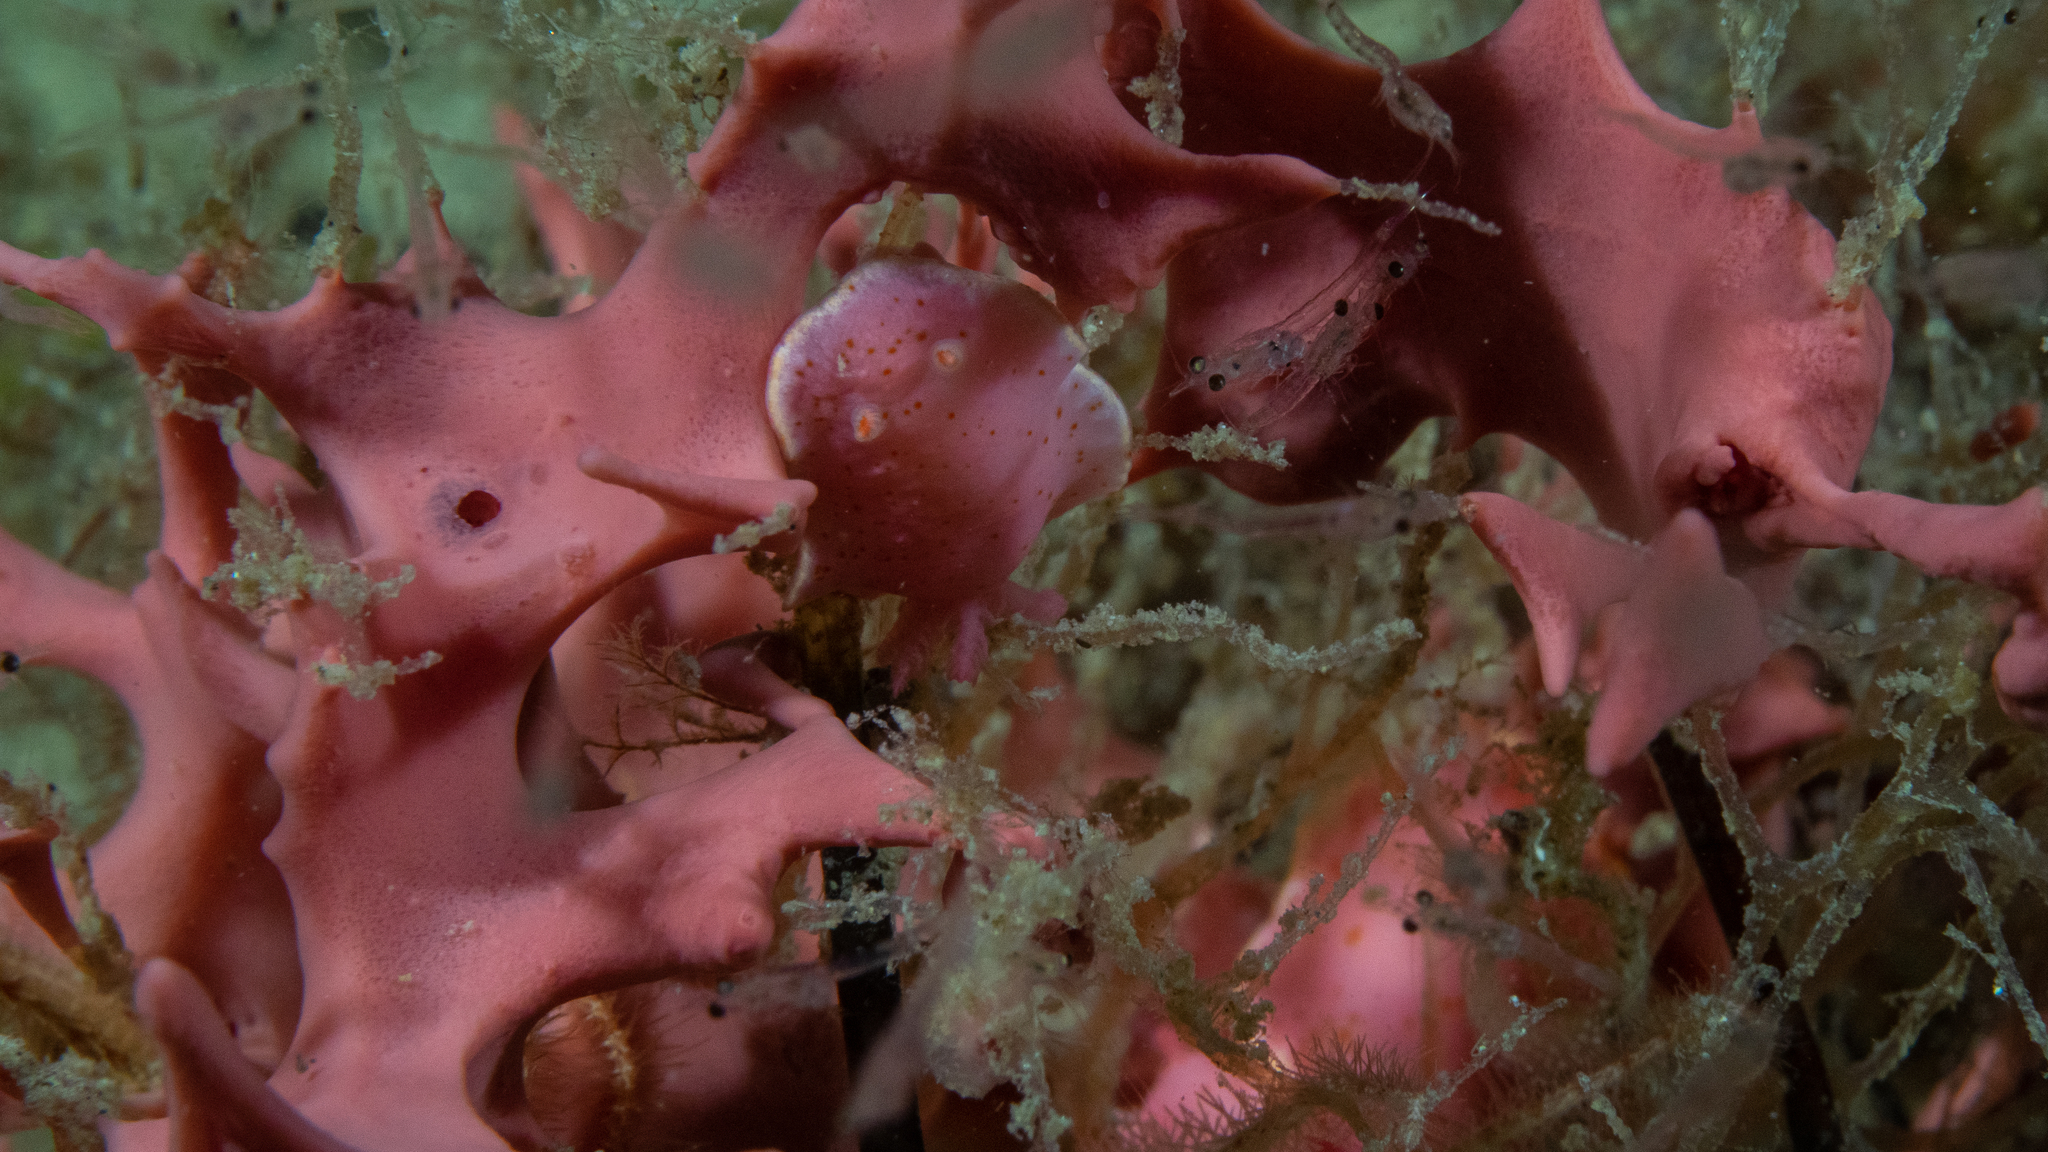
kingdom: Animalia
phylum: Mollusca
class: Gastropoda
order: Nudibranchia
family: Chromodorididae
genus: Verconia
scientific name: Verconia haliclona
